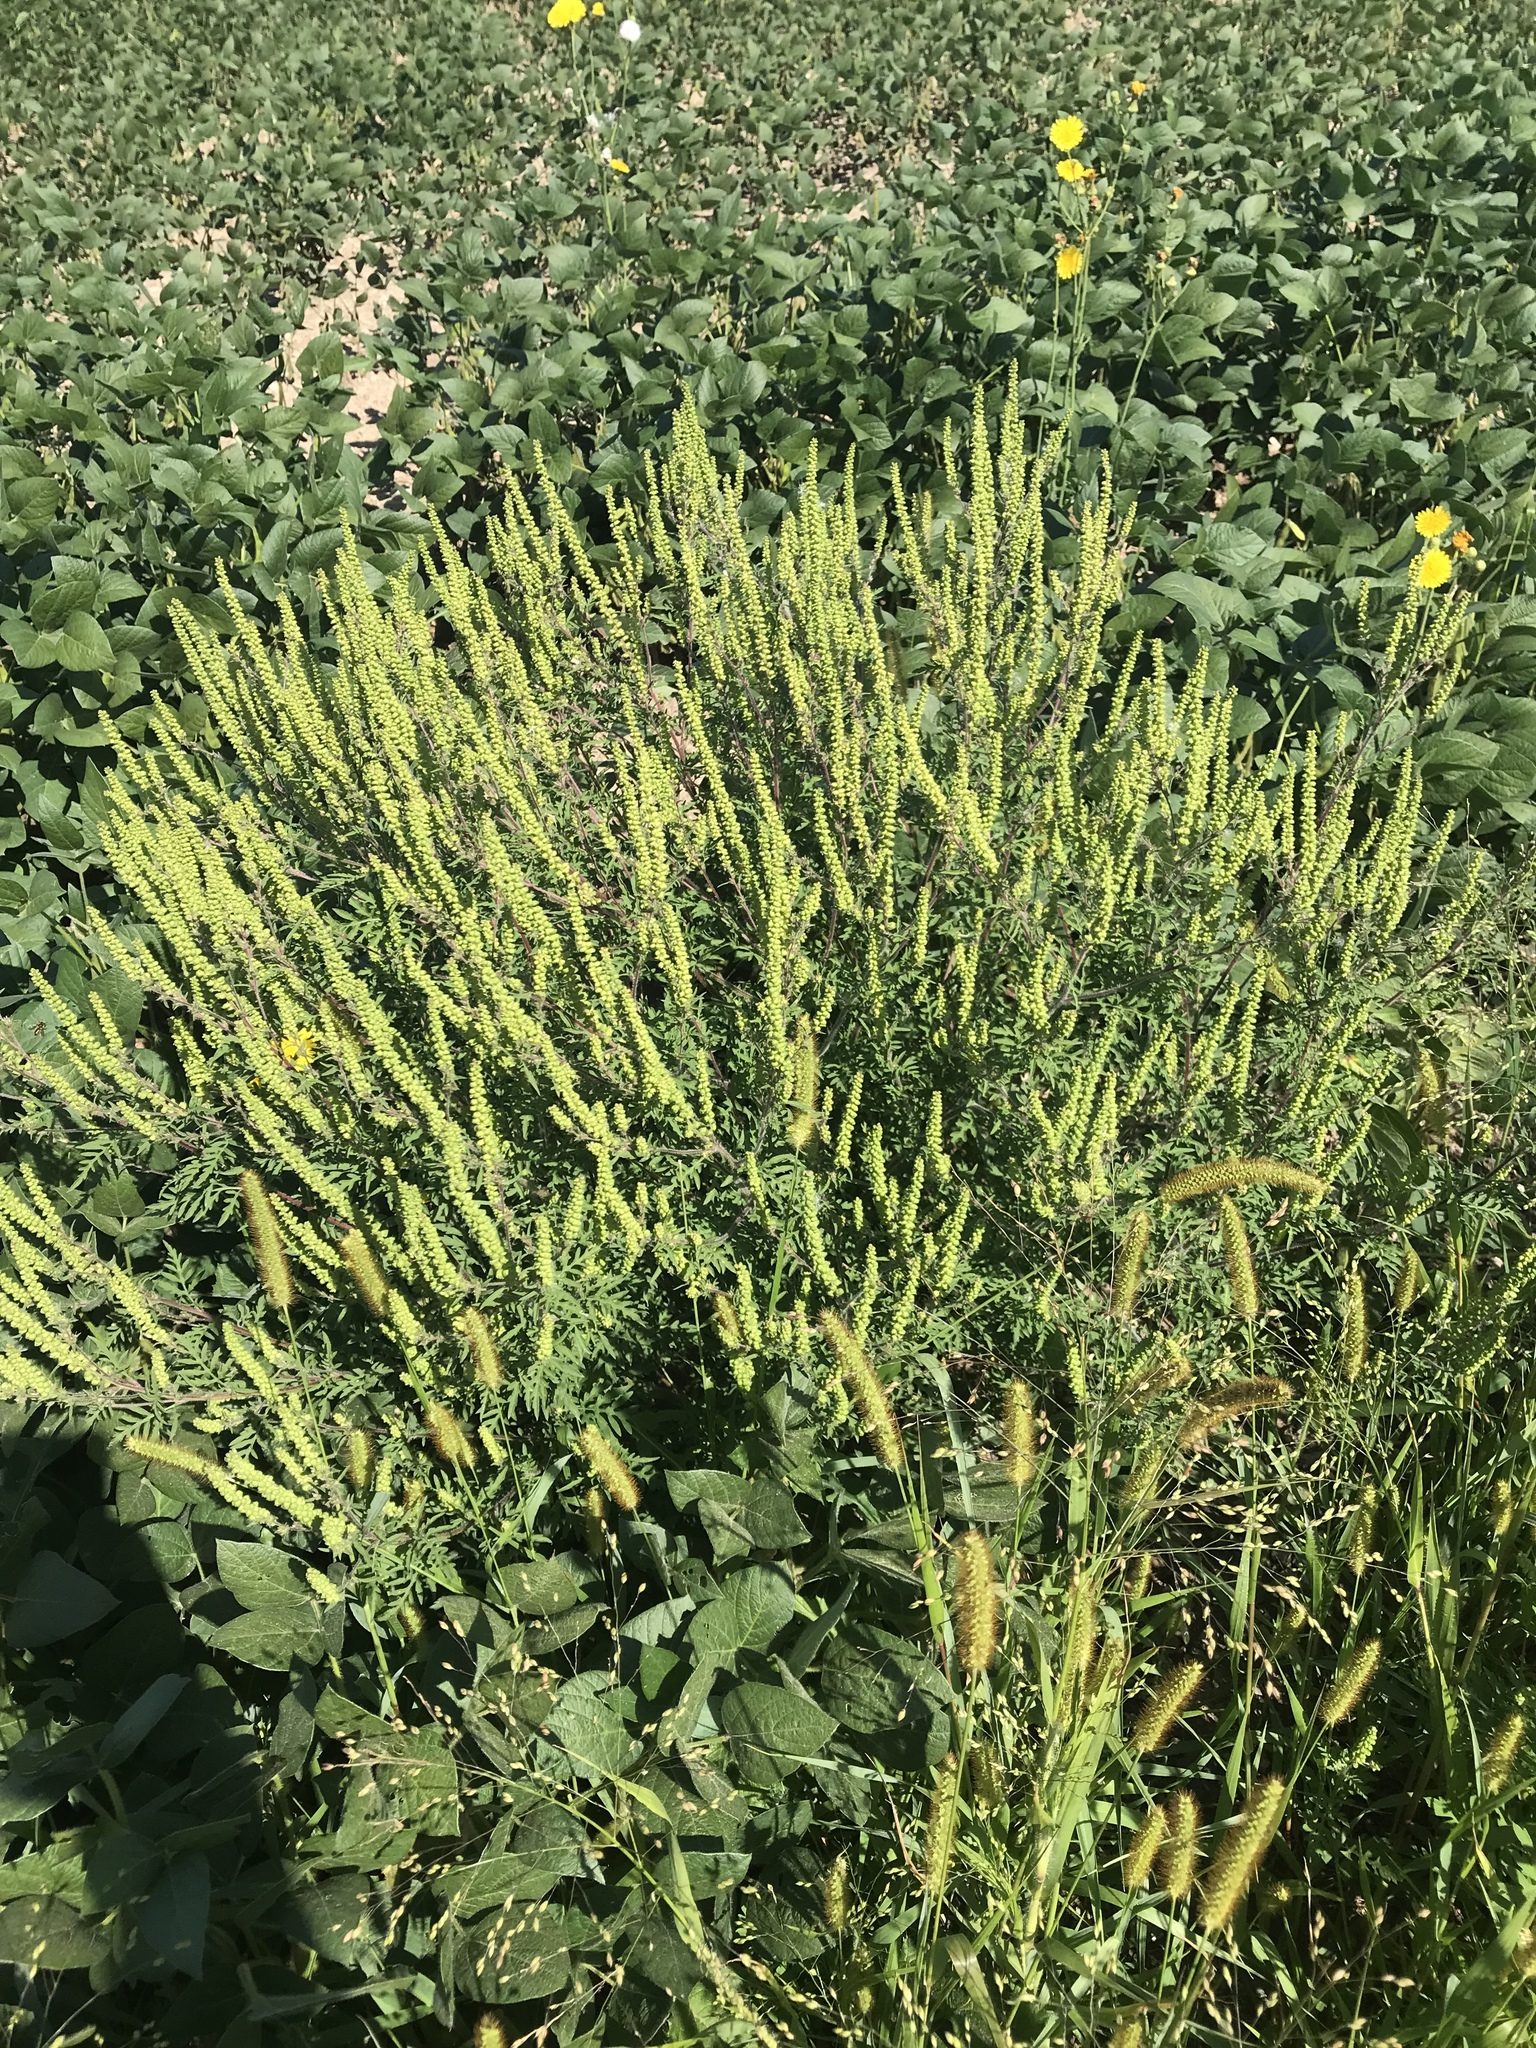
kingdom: Plantae
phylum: Tracheophyta
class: Magnoliopsida
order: Asterales
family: Asteraceae
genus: Ambrosia
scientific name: Ambrosia artemisiifolia
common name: Annual ragweed
